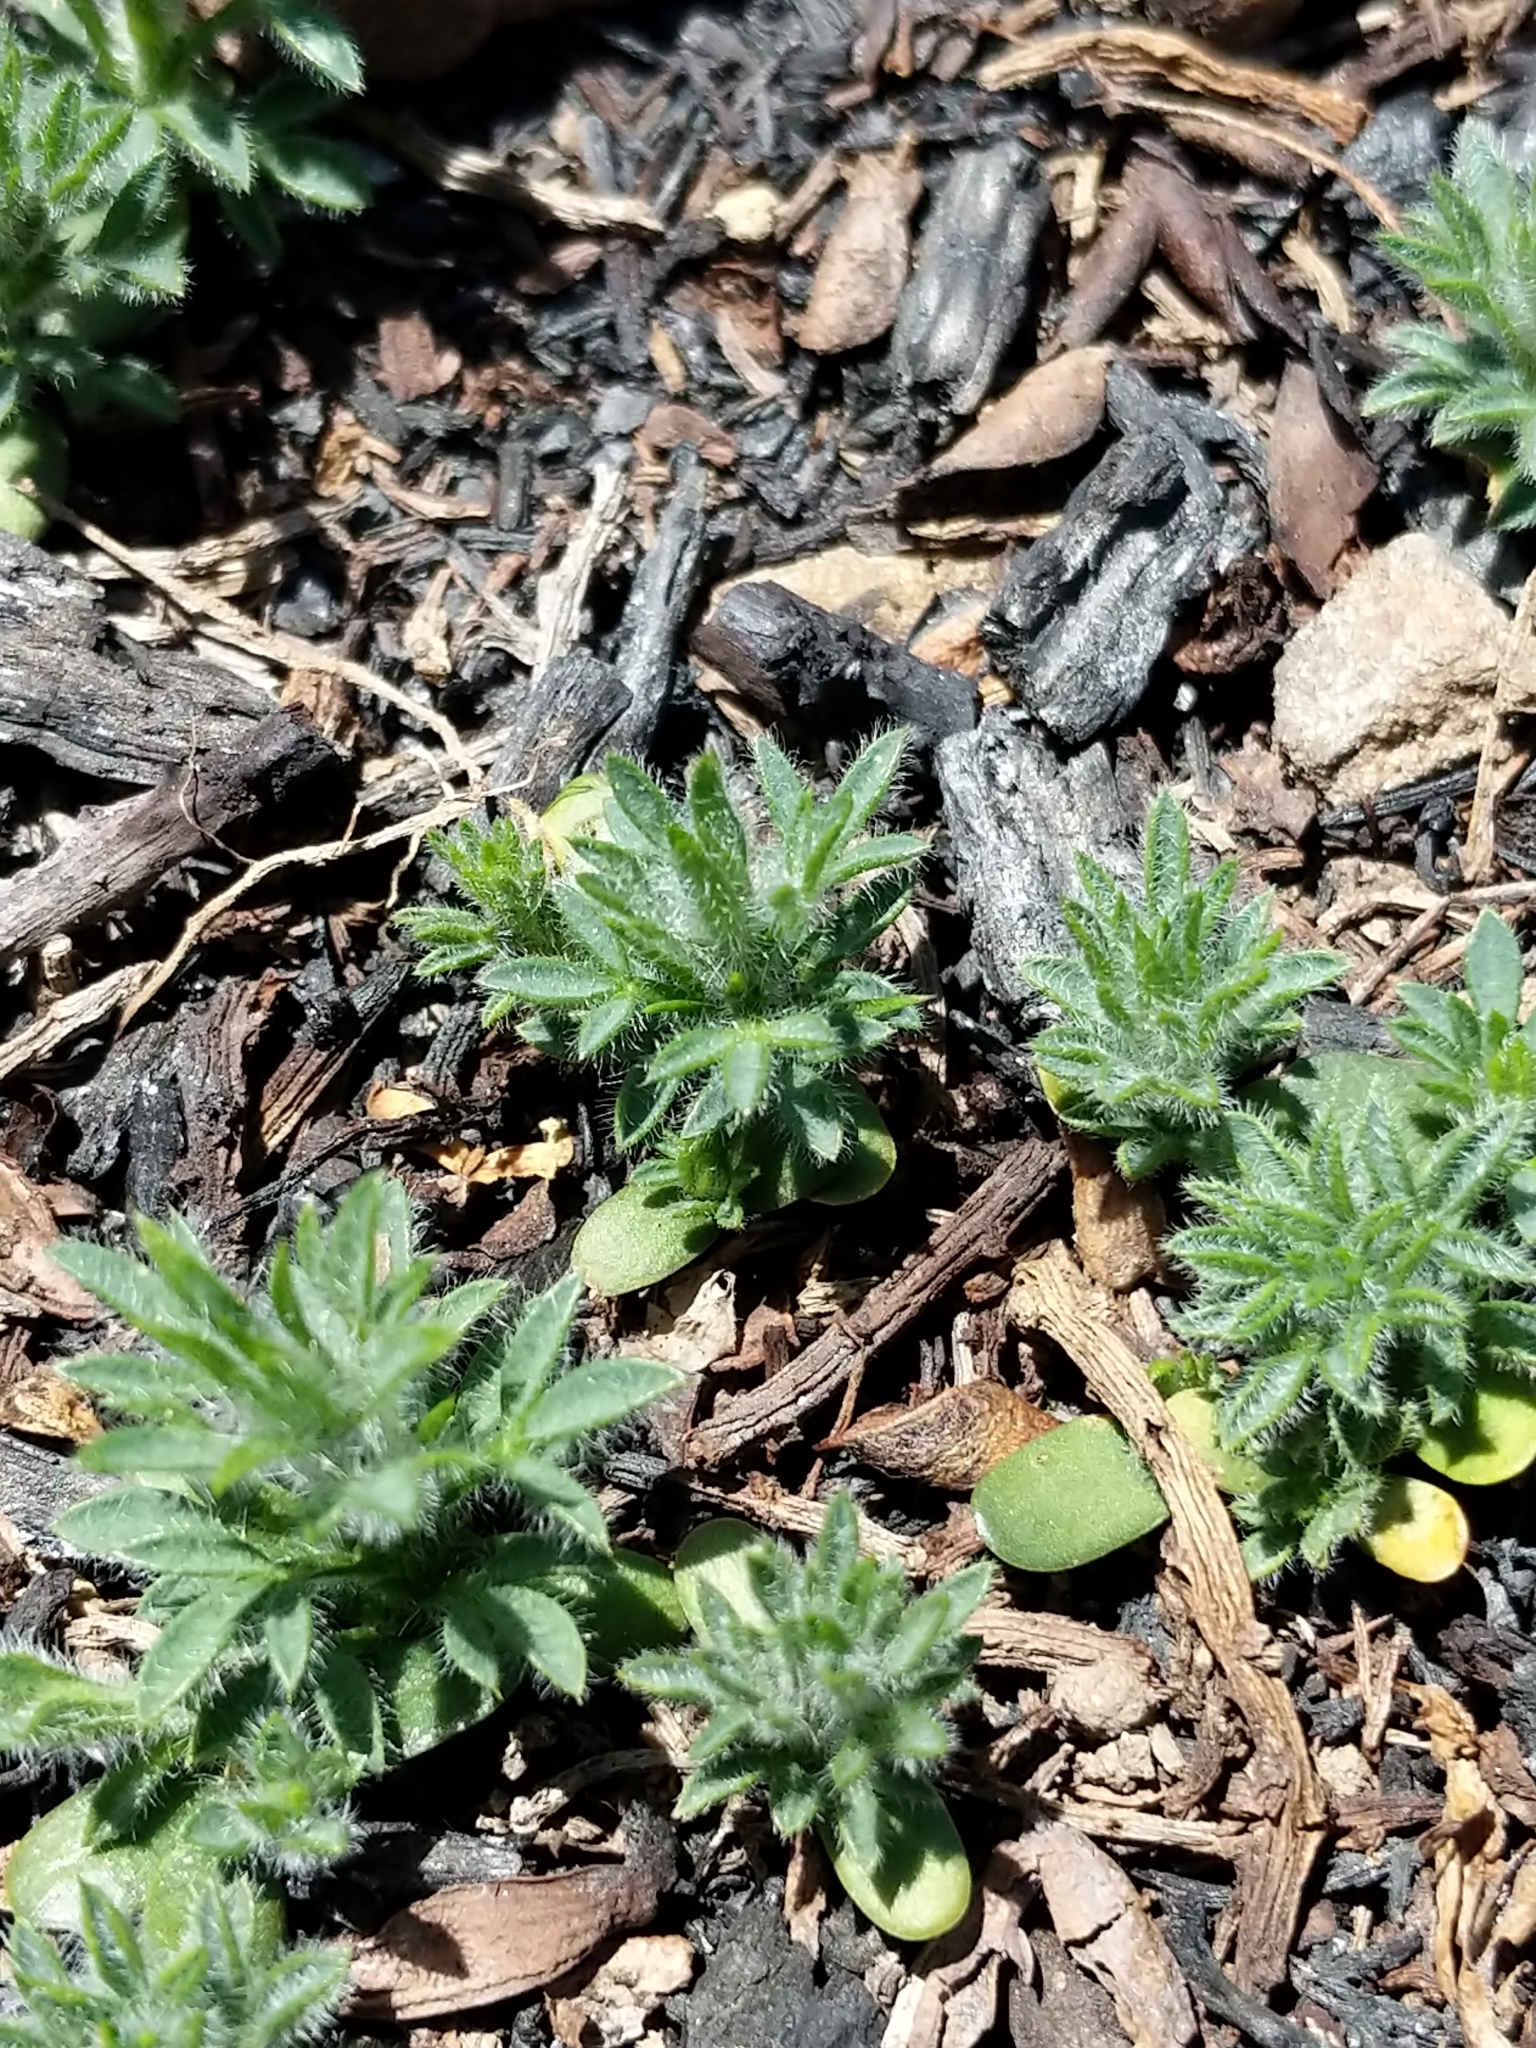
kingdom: Plantae
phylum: Tracheophyta
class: Magnoliopsida
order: Fabales
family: Fabaceae
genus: Ulex
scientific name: Ulex europaeus
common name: Common gorse
